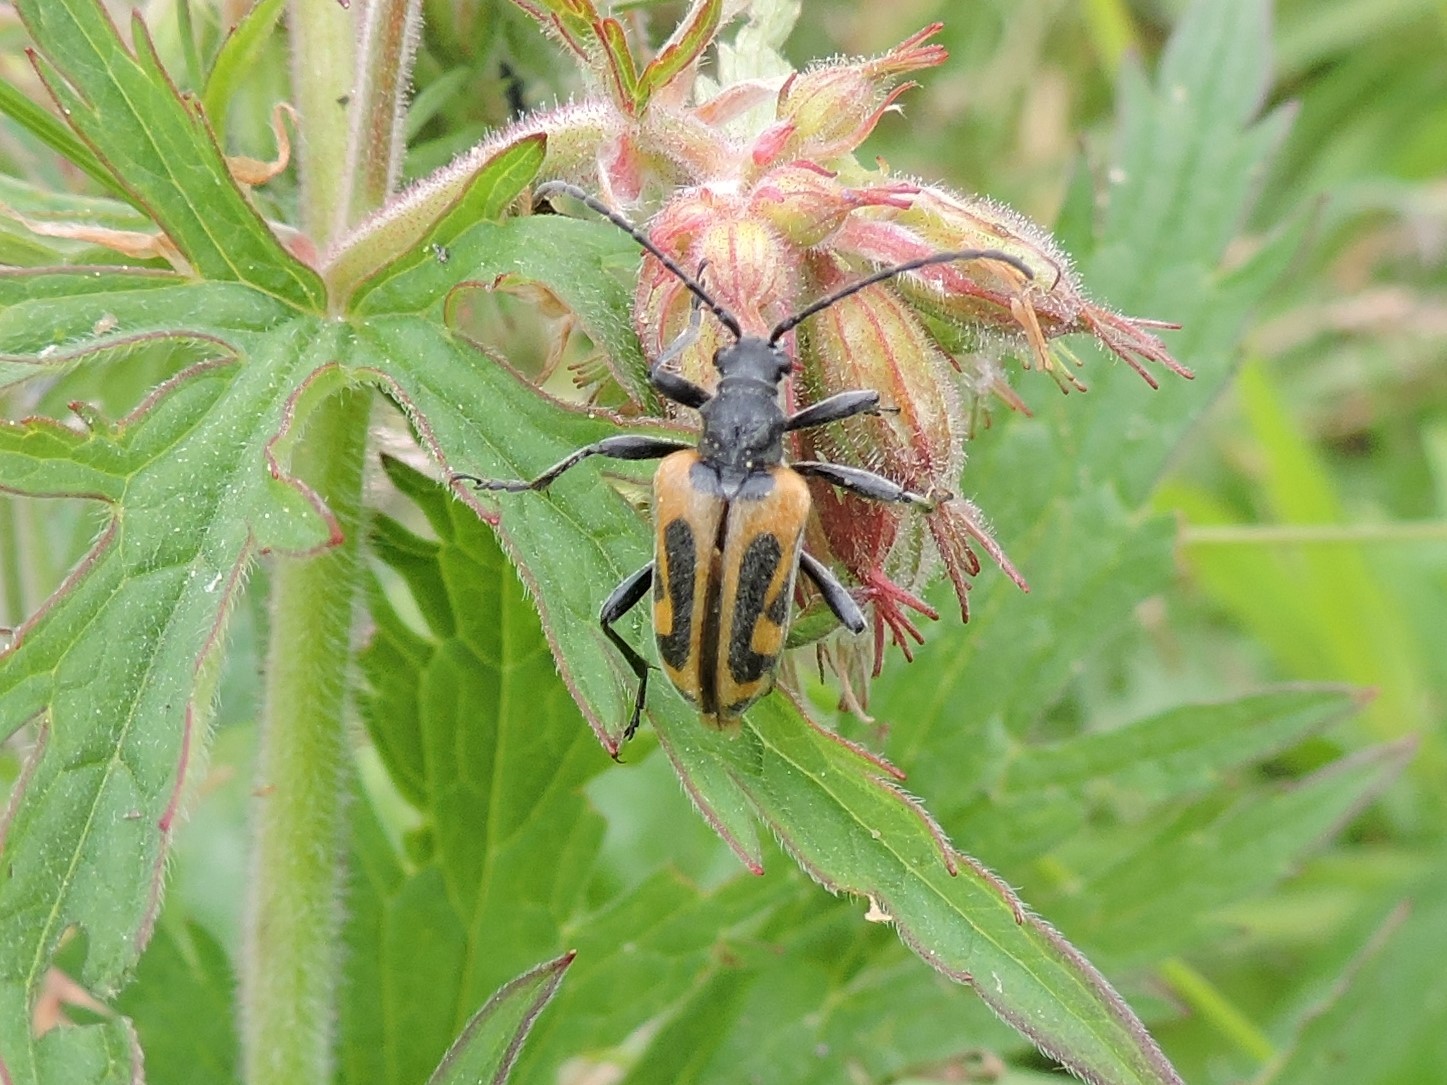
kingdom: Animalia
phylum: Arthropoda
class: Insecta
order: Coleoptera
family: Cerambycidae
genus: Brachyta
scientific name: Brachyta interrogationis
